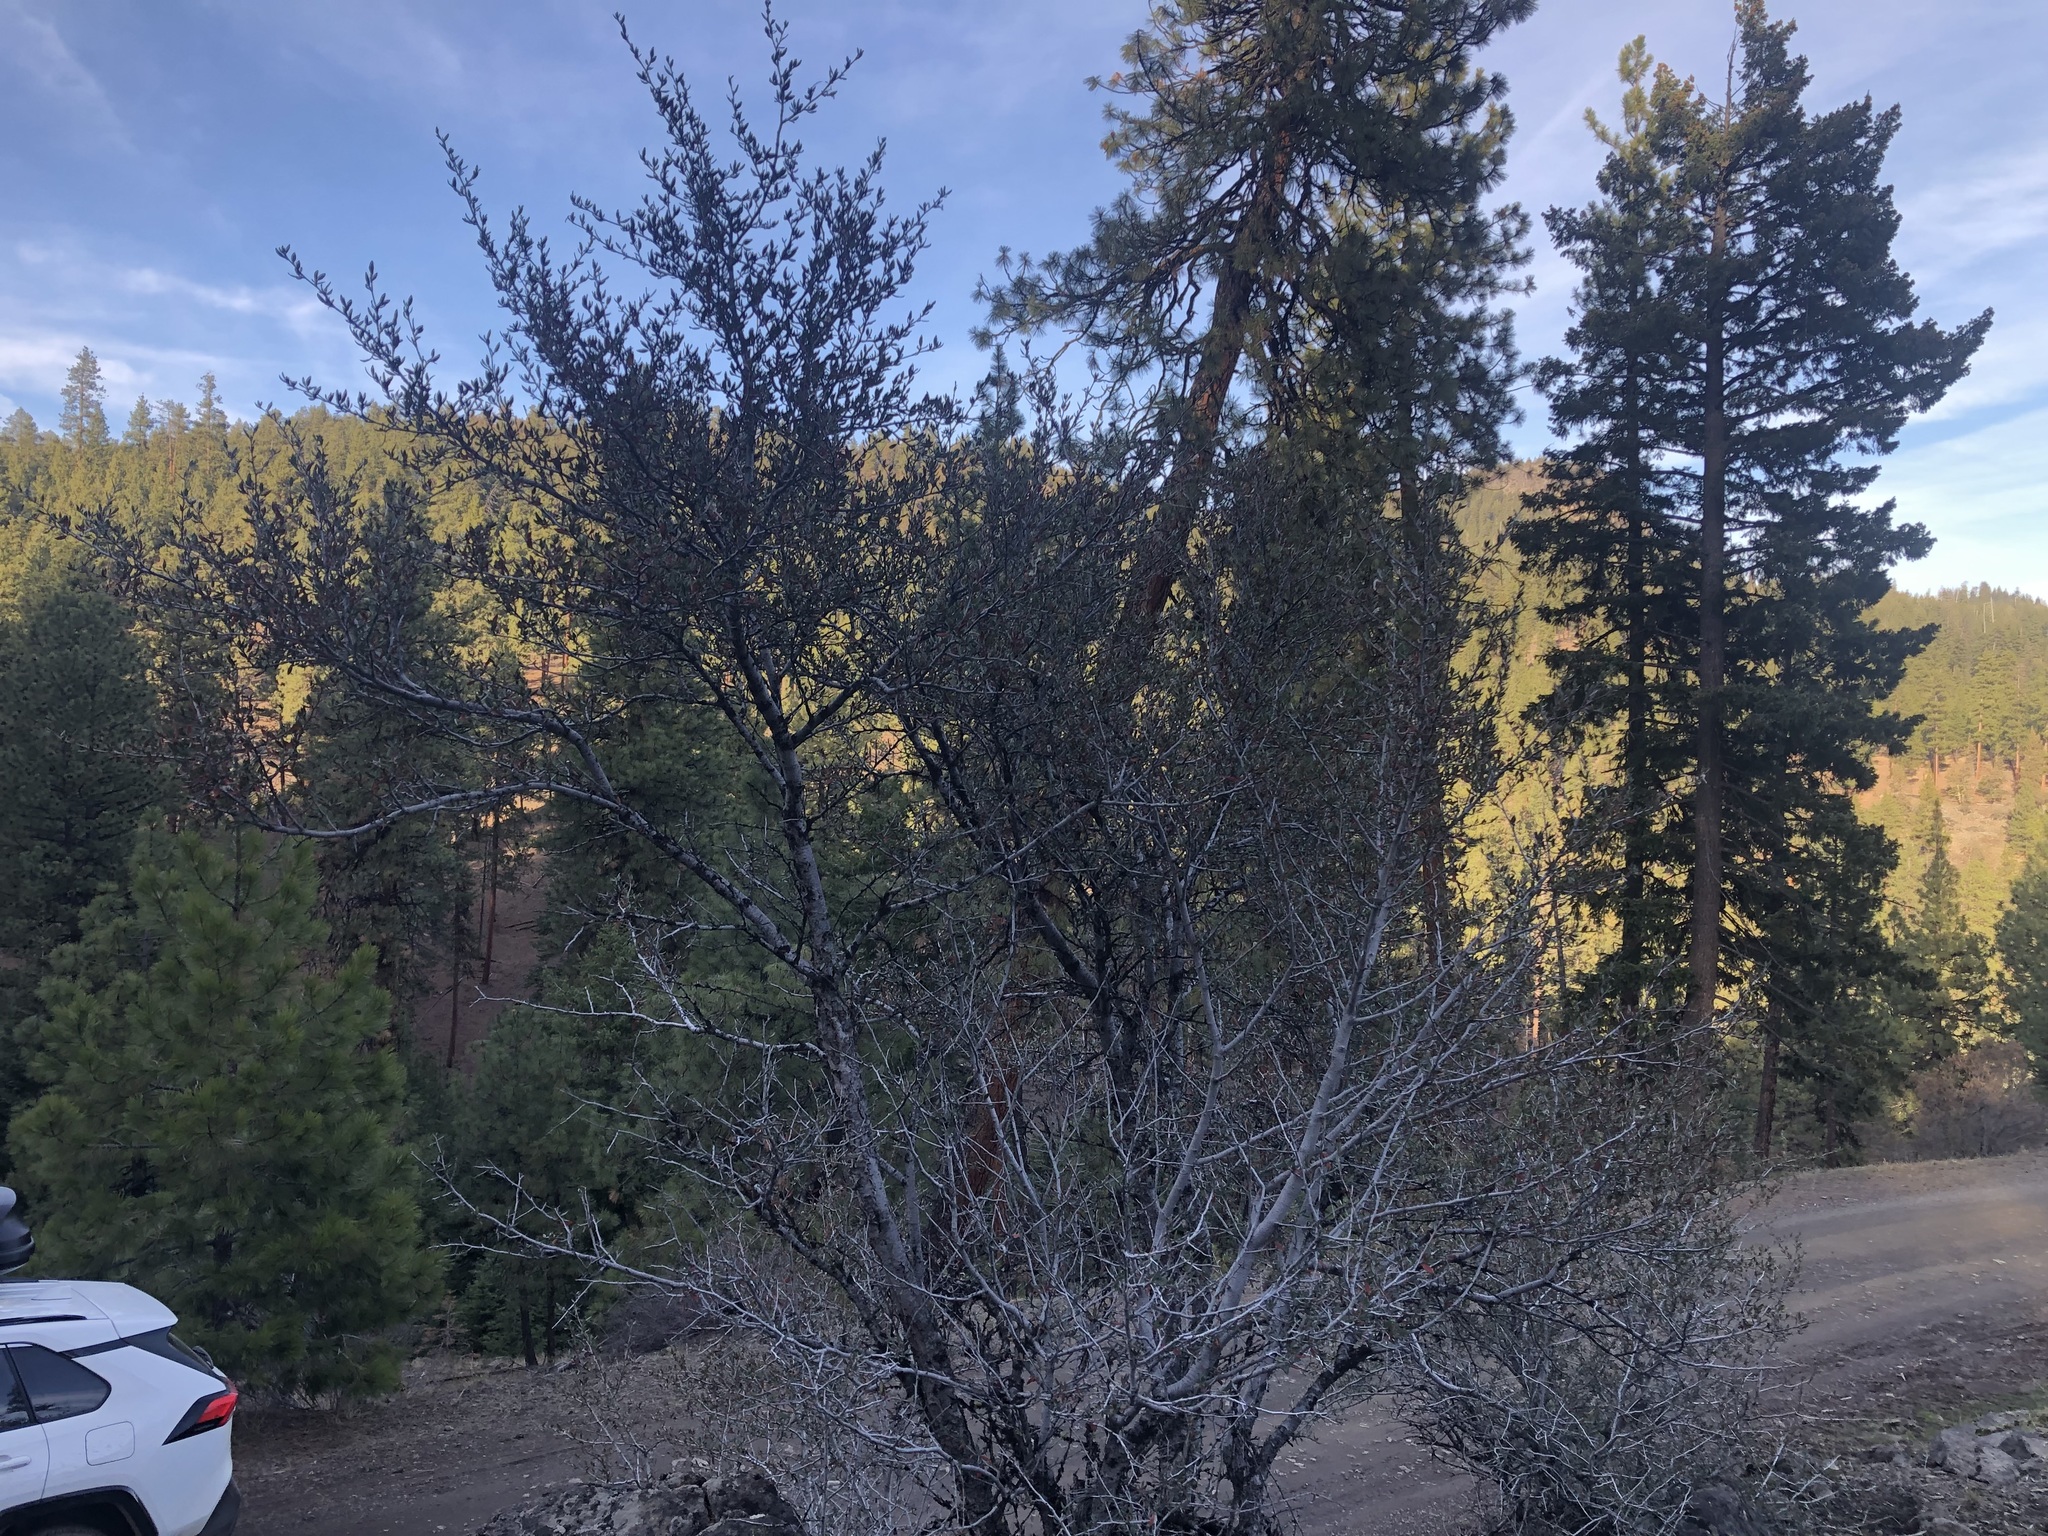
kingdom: Plantae
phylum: Tracheophyta
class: Magnoliopsida
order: Rosales
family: Rosaceae
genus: Cercocarpus
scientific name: Cercocarpus ledifolius
